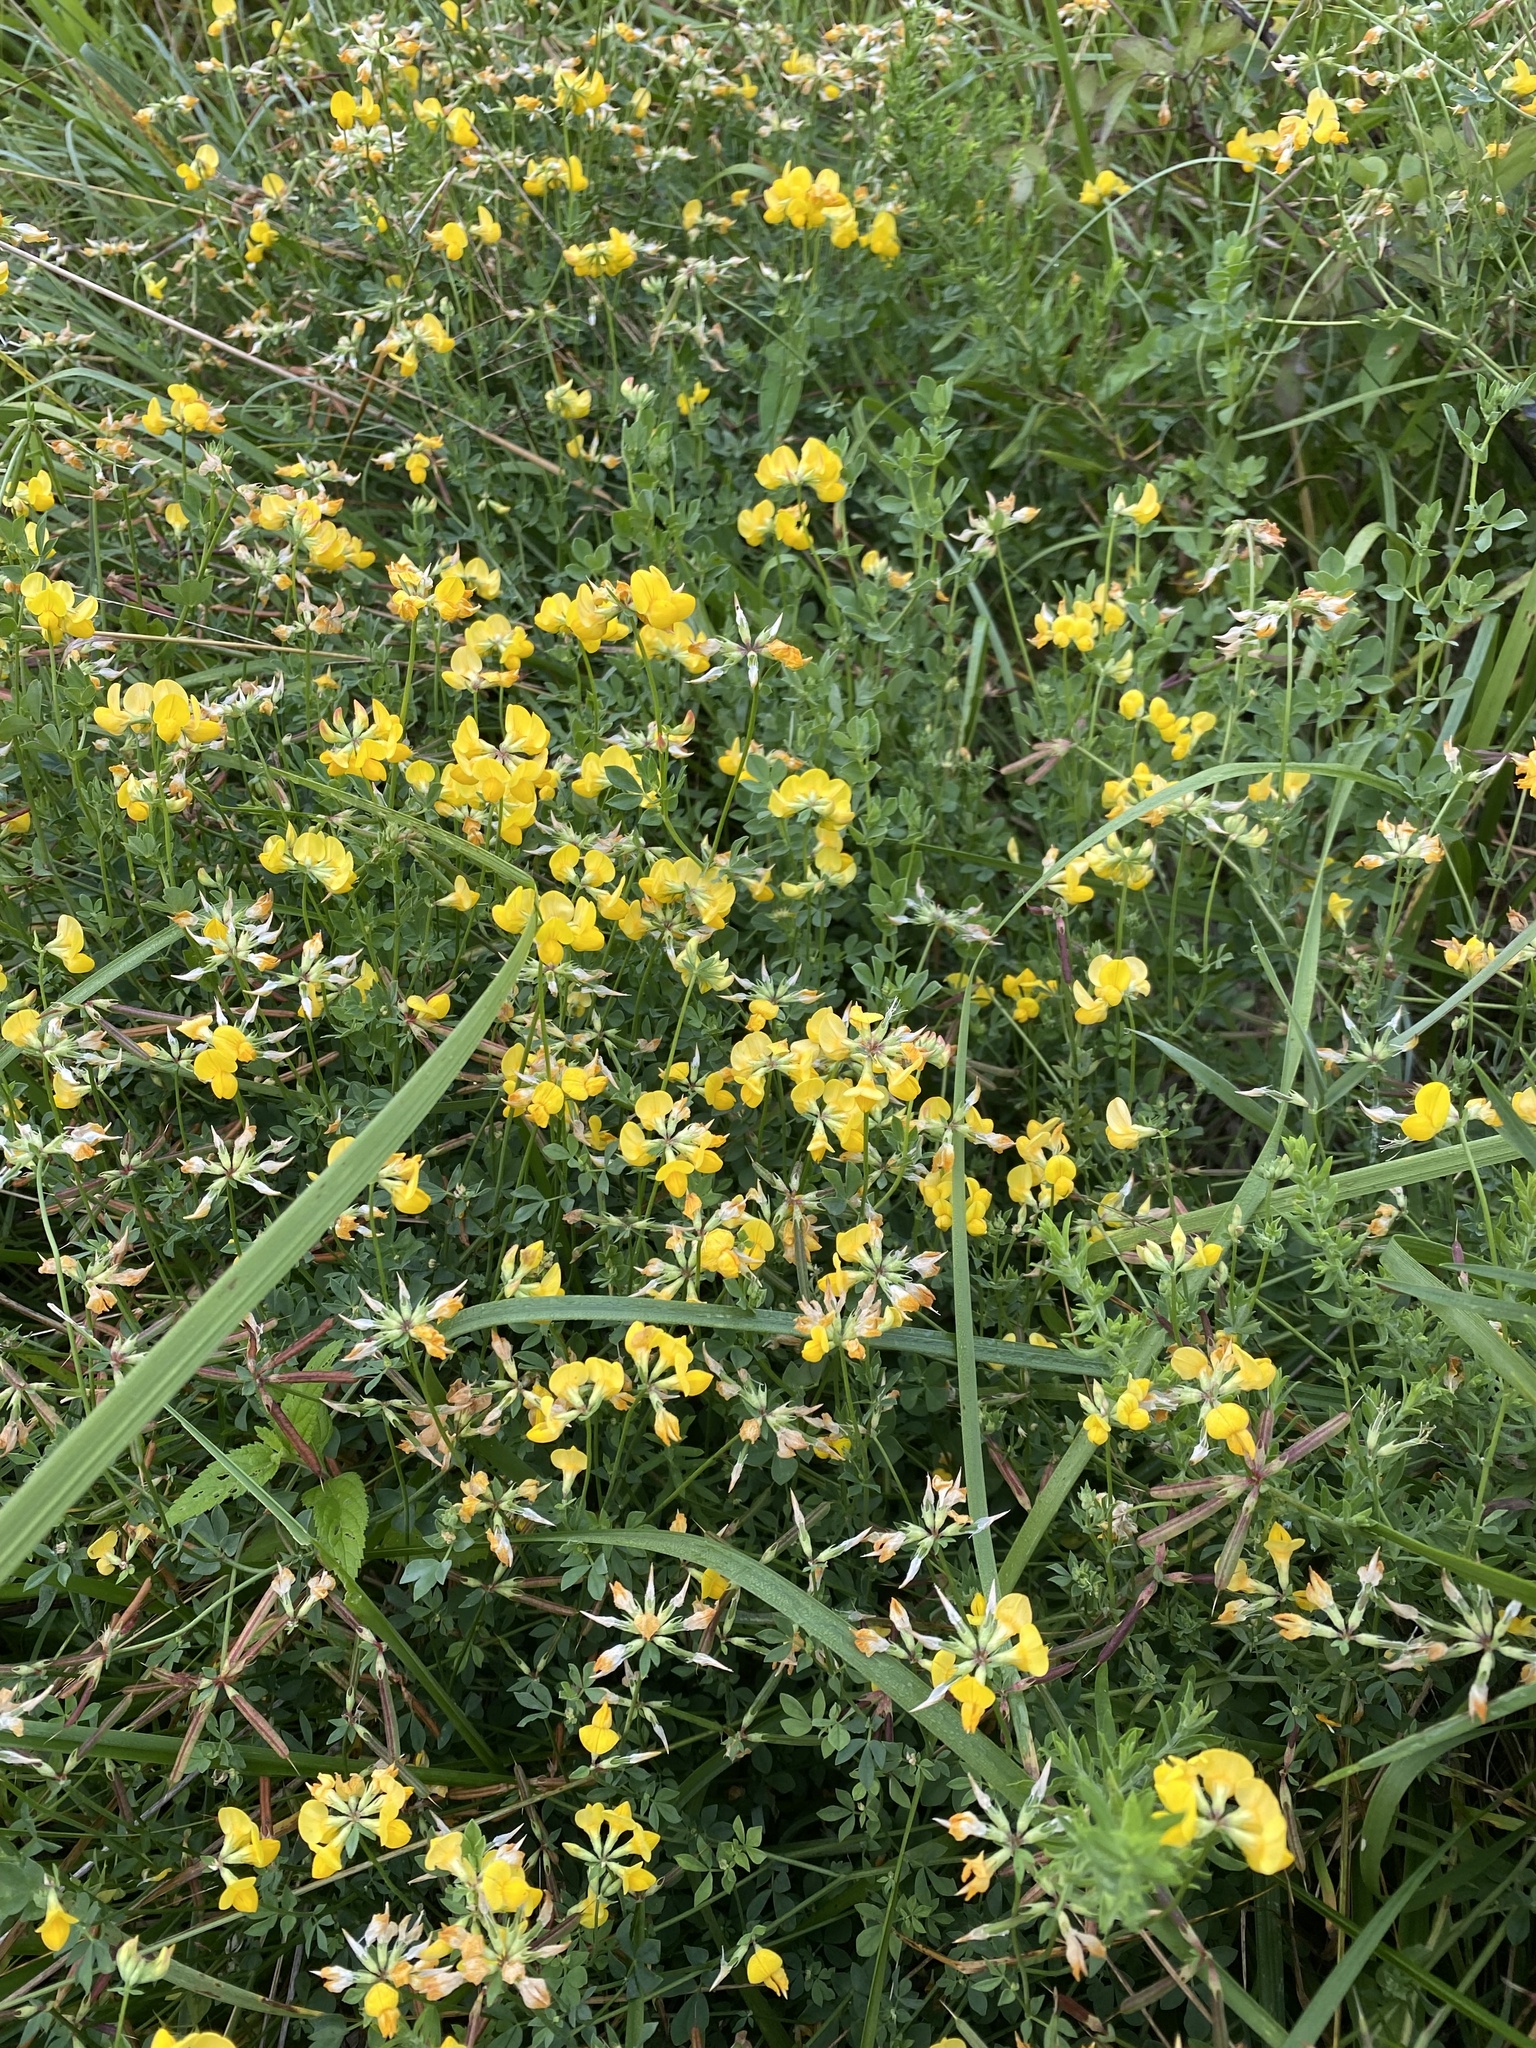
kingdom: Plantae
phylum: Tracheophyta
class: Magnoliopsida
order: Fabales
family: Fabaceae
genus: Lotus
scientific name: Lotus corniculatus
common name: Common bird's-foot-trefoil
